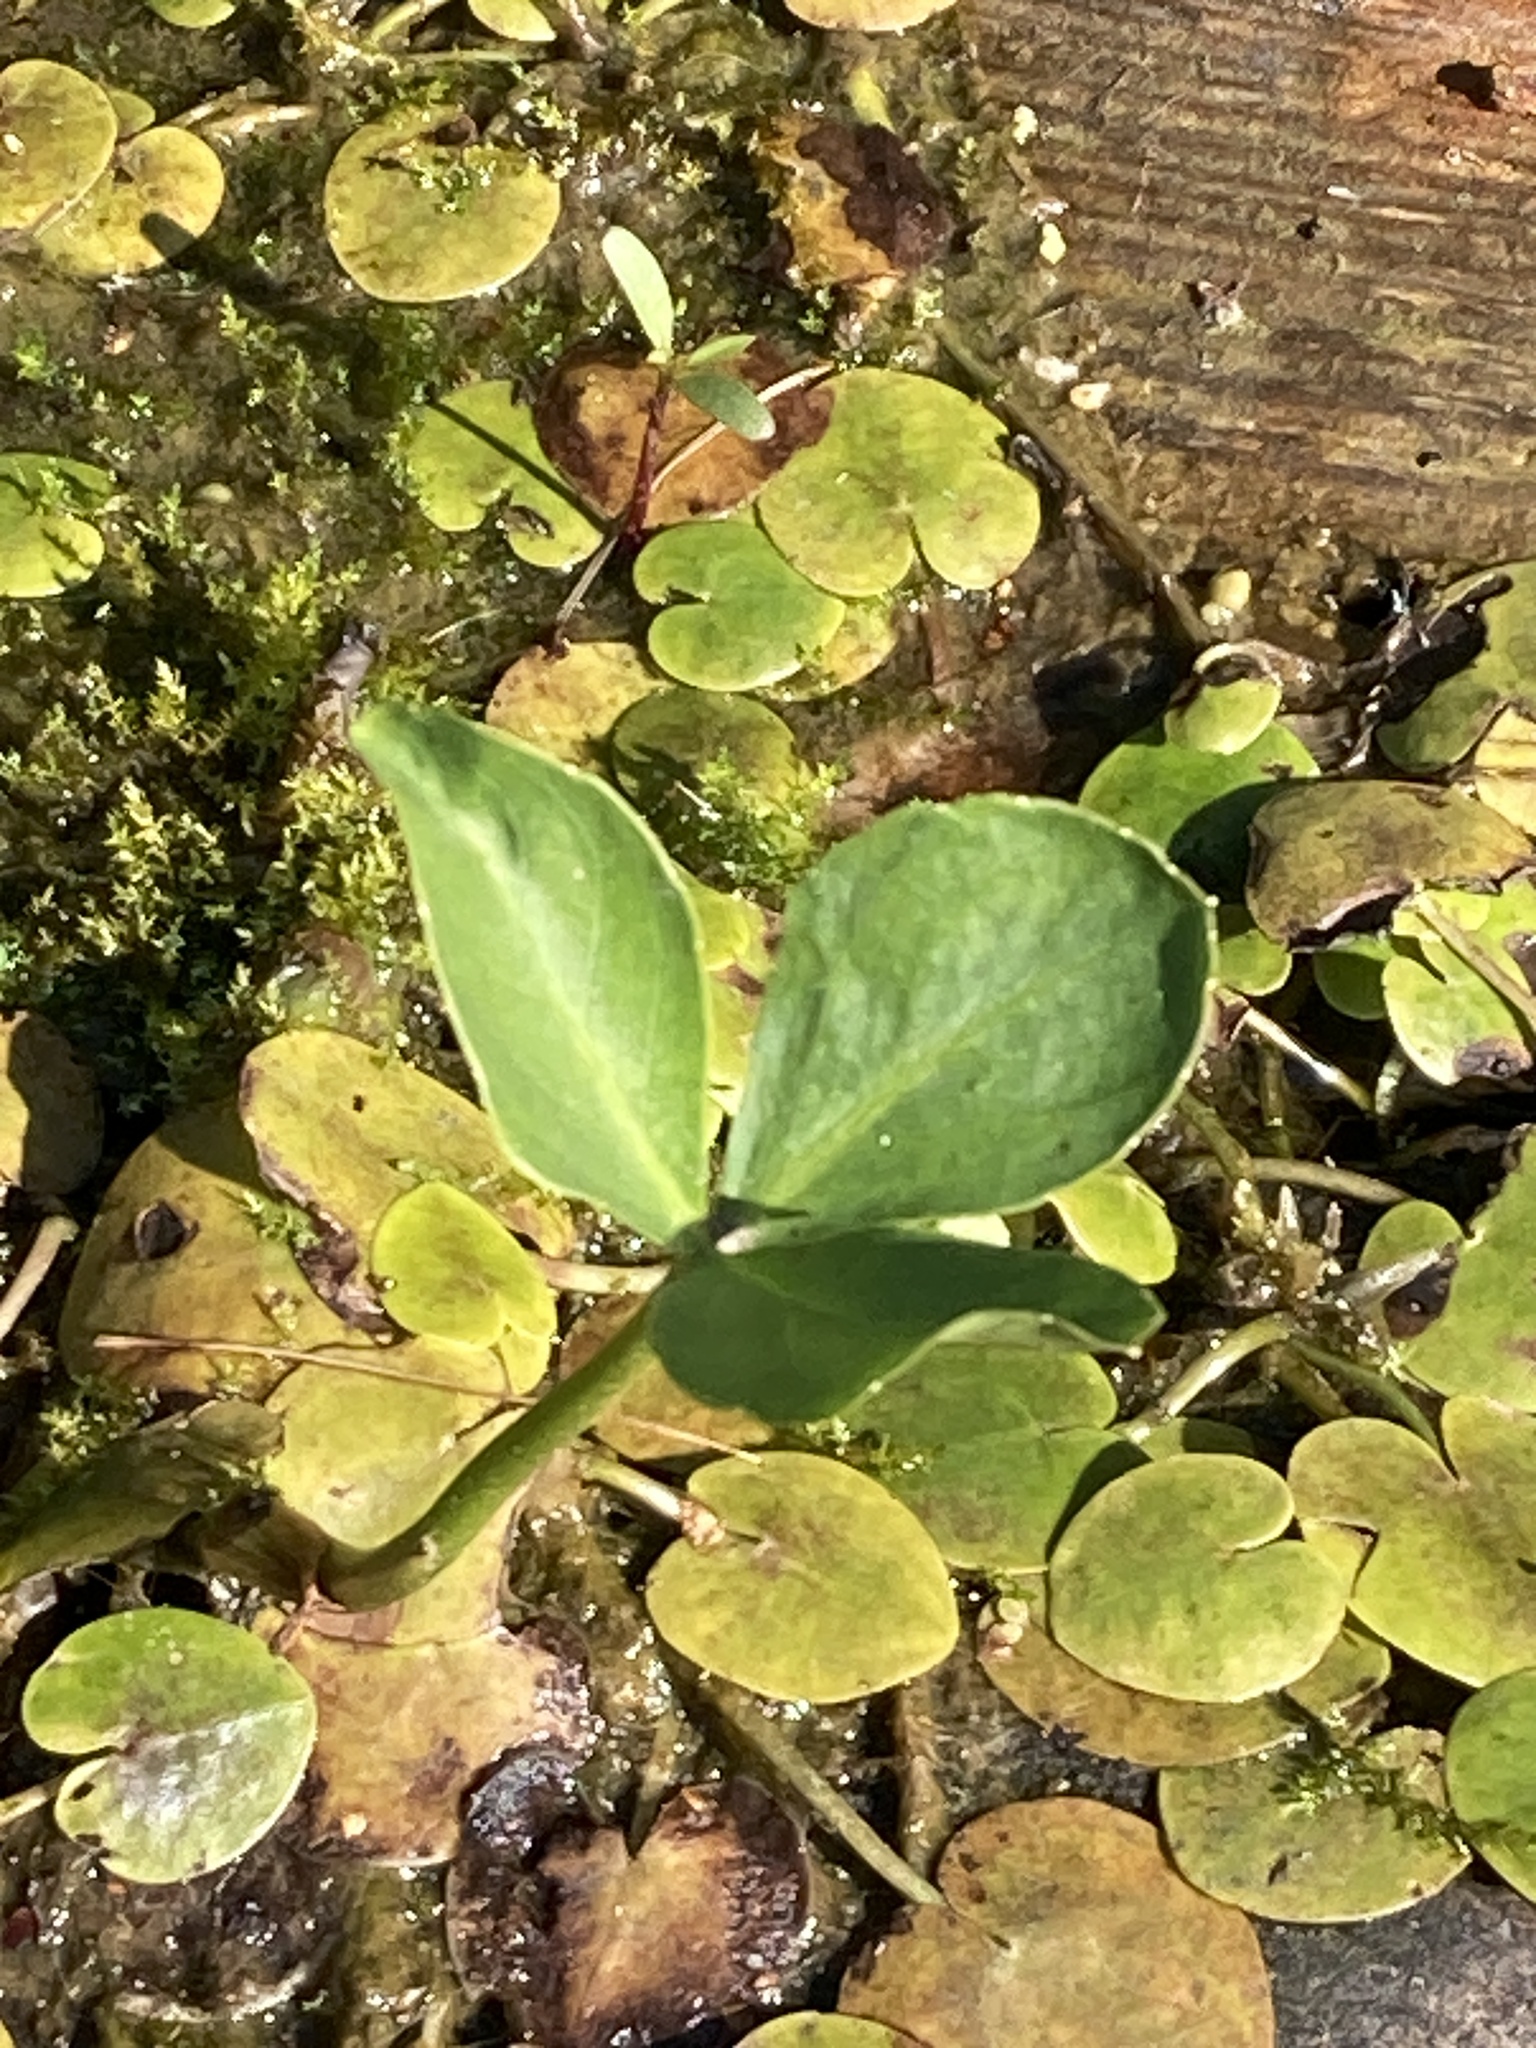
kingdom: Plantae
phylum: Tracheophyta
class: Magnoliopsida
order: Asterales
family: Menyanthaceae
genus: Menyanthes
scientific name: Menyanthes trifoliata
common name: Bogbean
